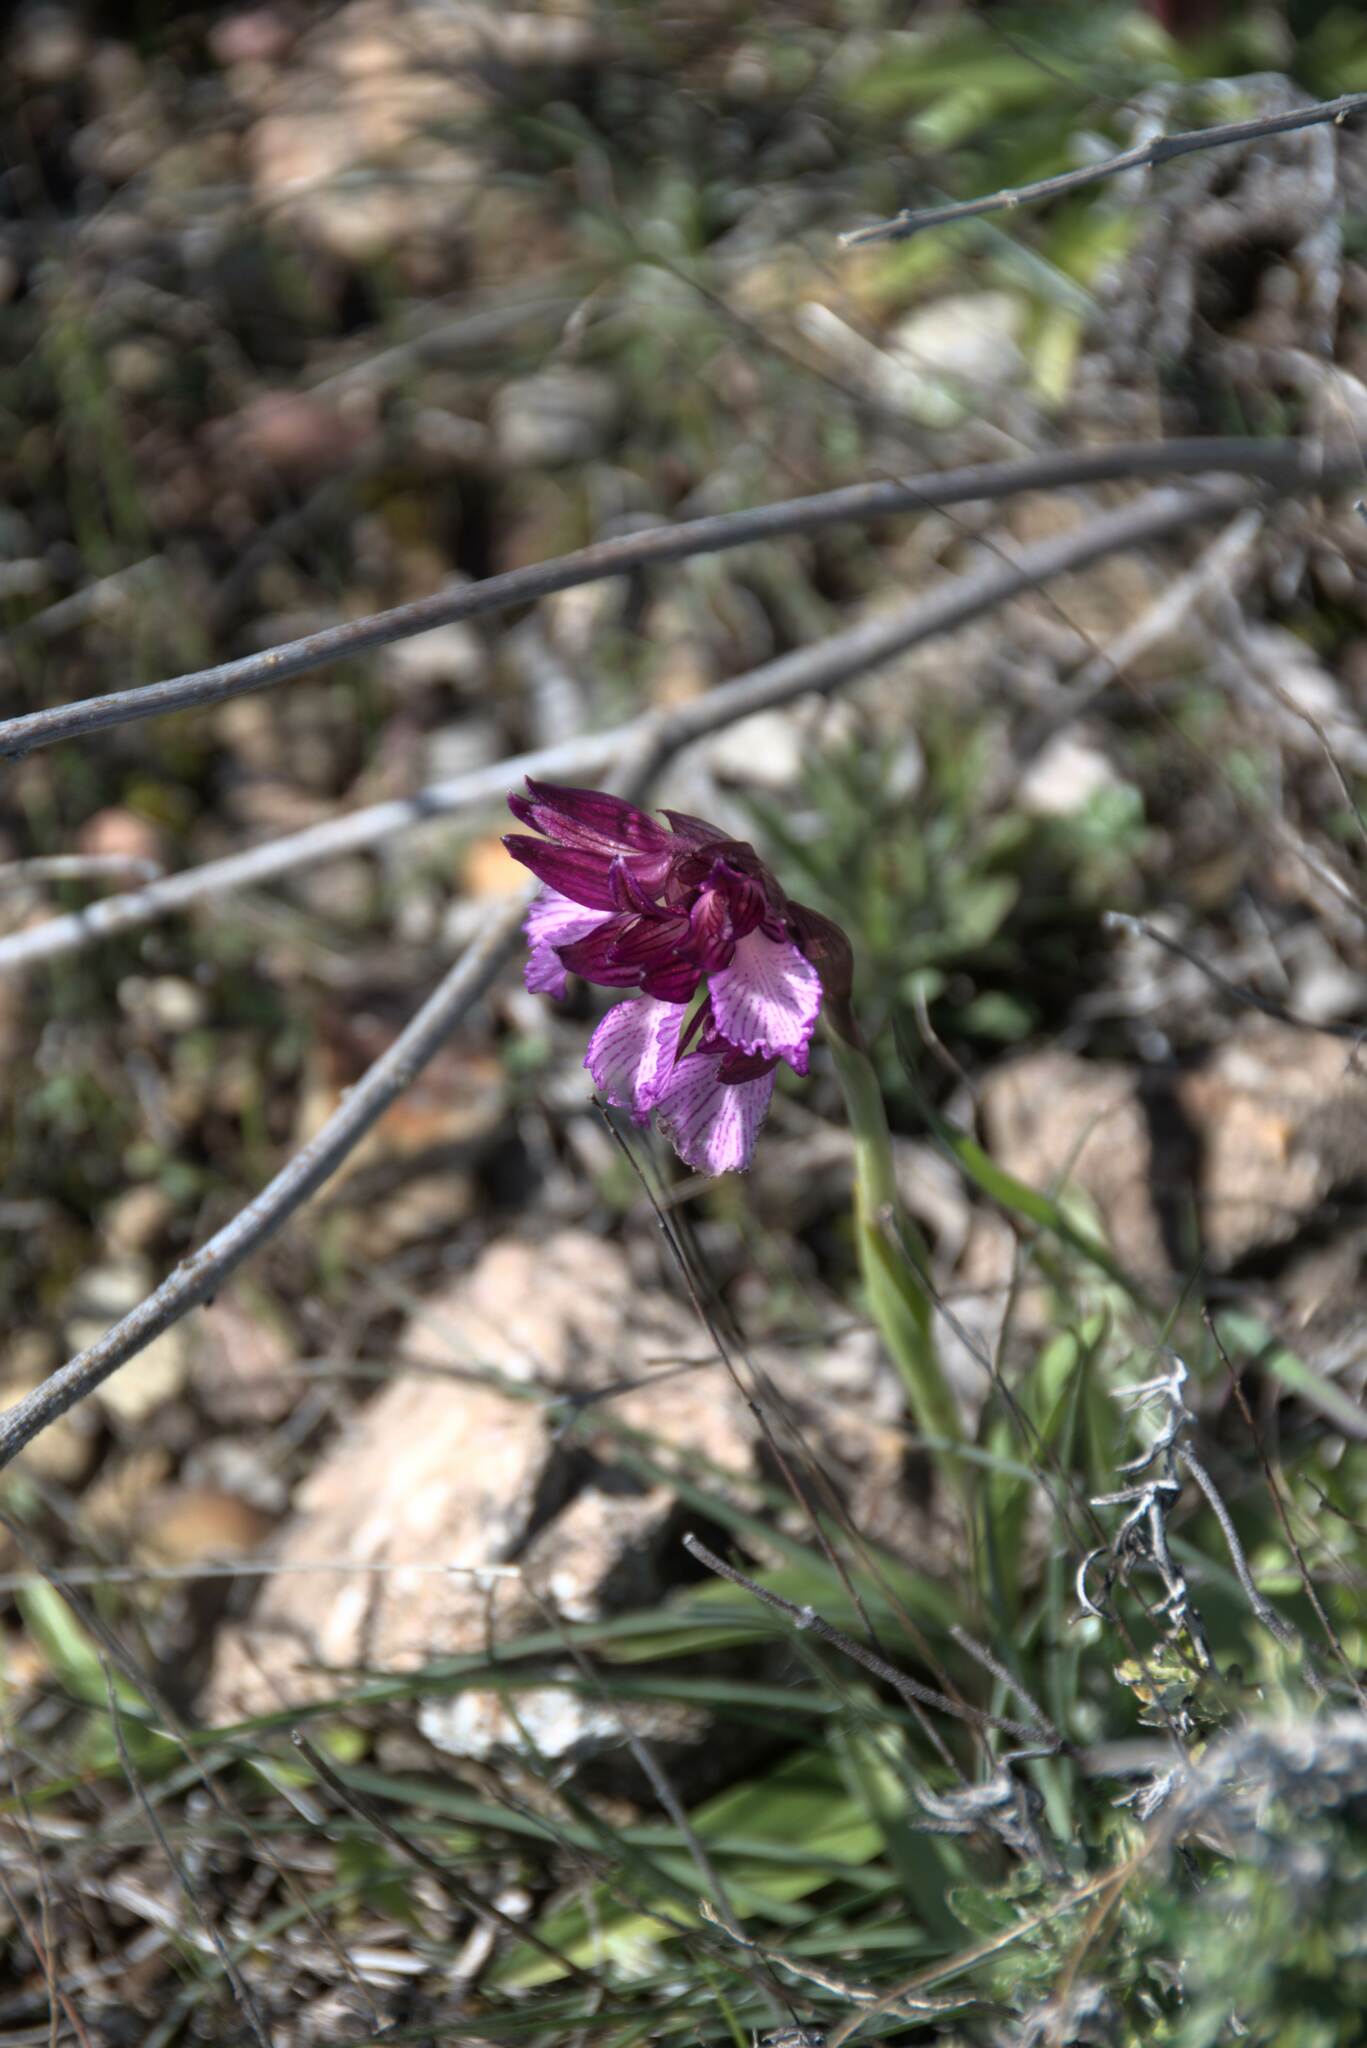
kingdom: Plantae
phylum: Tracheophyta
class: Liliopsida
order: Asparagales
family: Orchidaceae
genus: Anacamptis
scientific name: Anacamptis papilionacea
